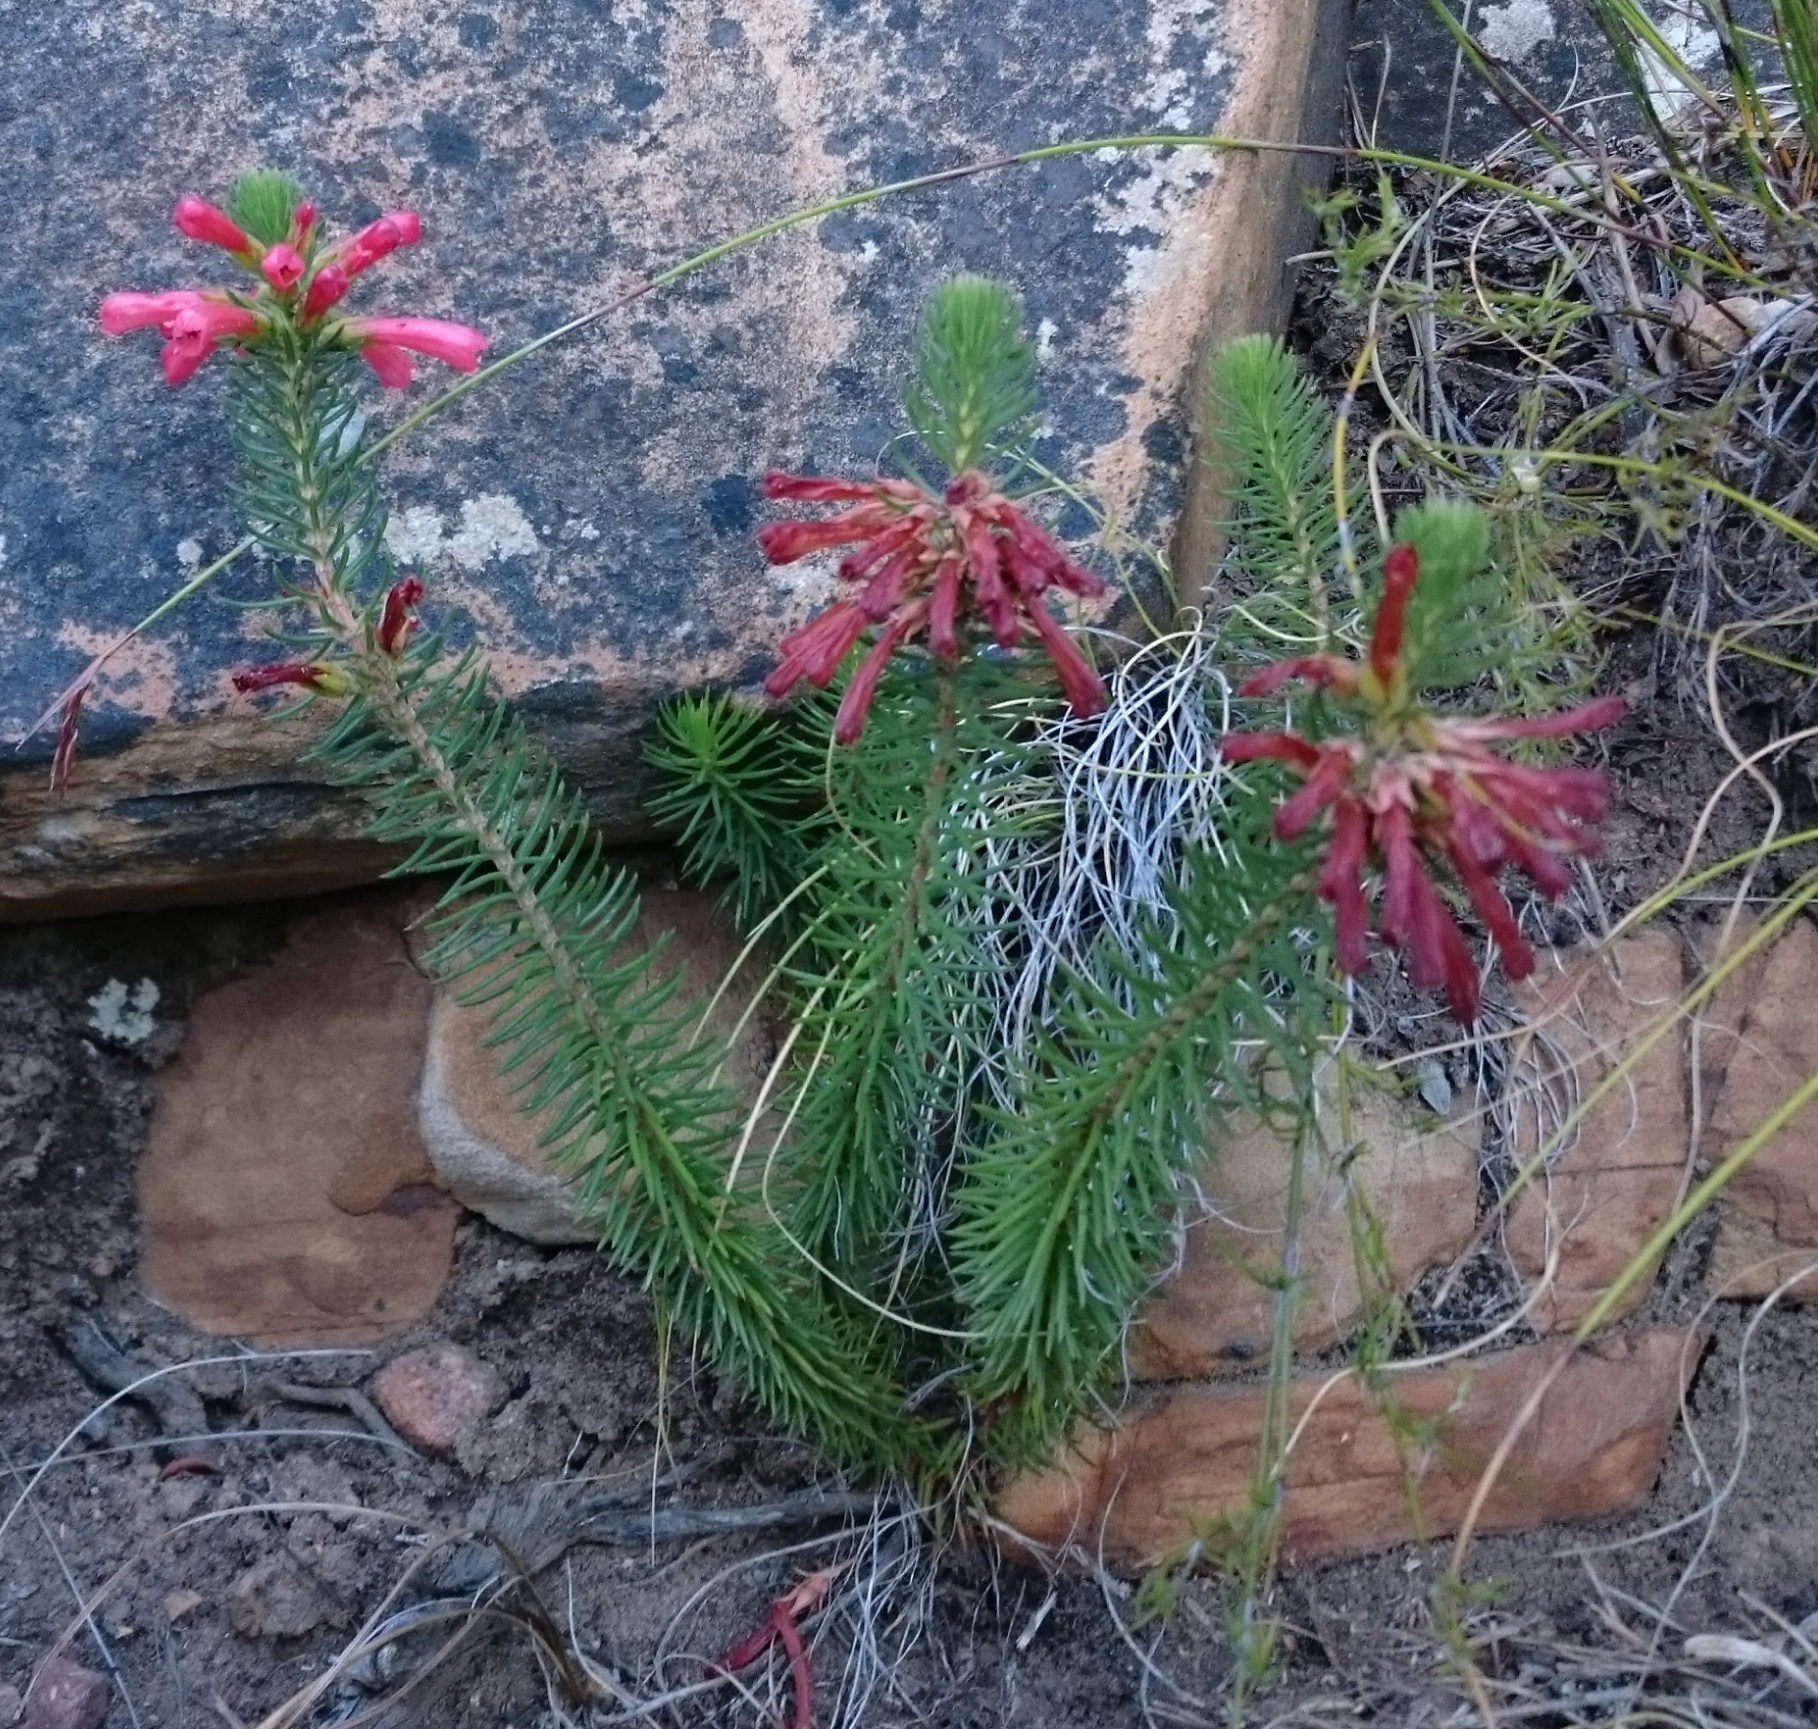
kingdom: Plantae
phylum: Tracheophyta
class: Magnoliopsida
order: Ericales
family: Ericaceae
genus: Erica
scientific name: Erica abietina
